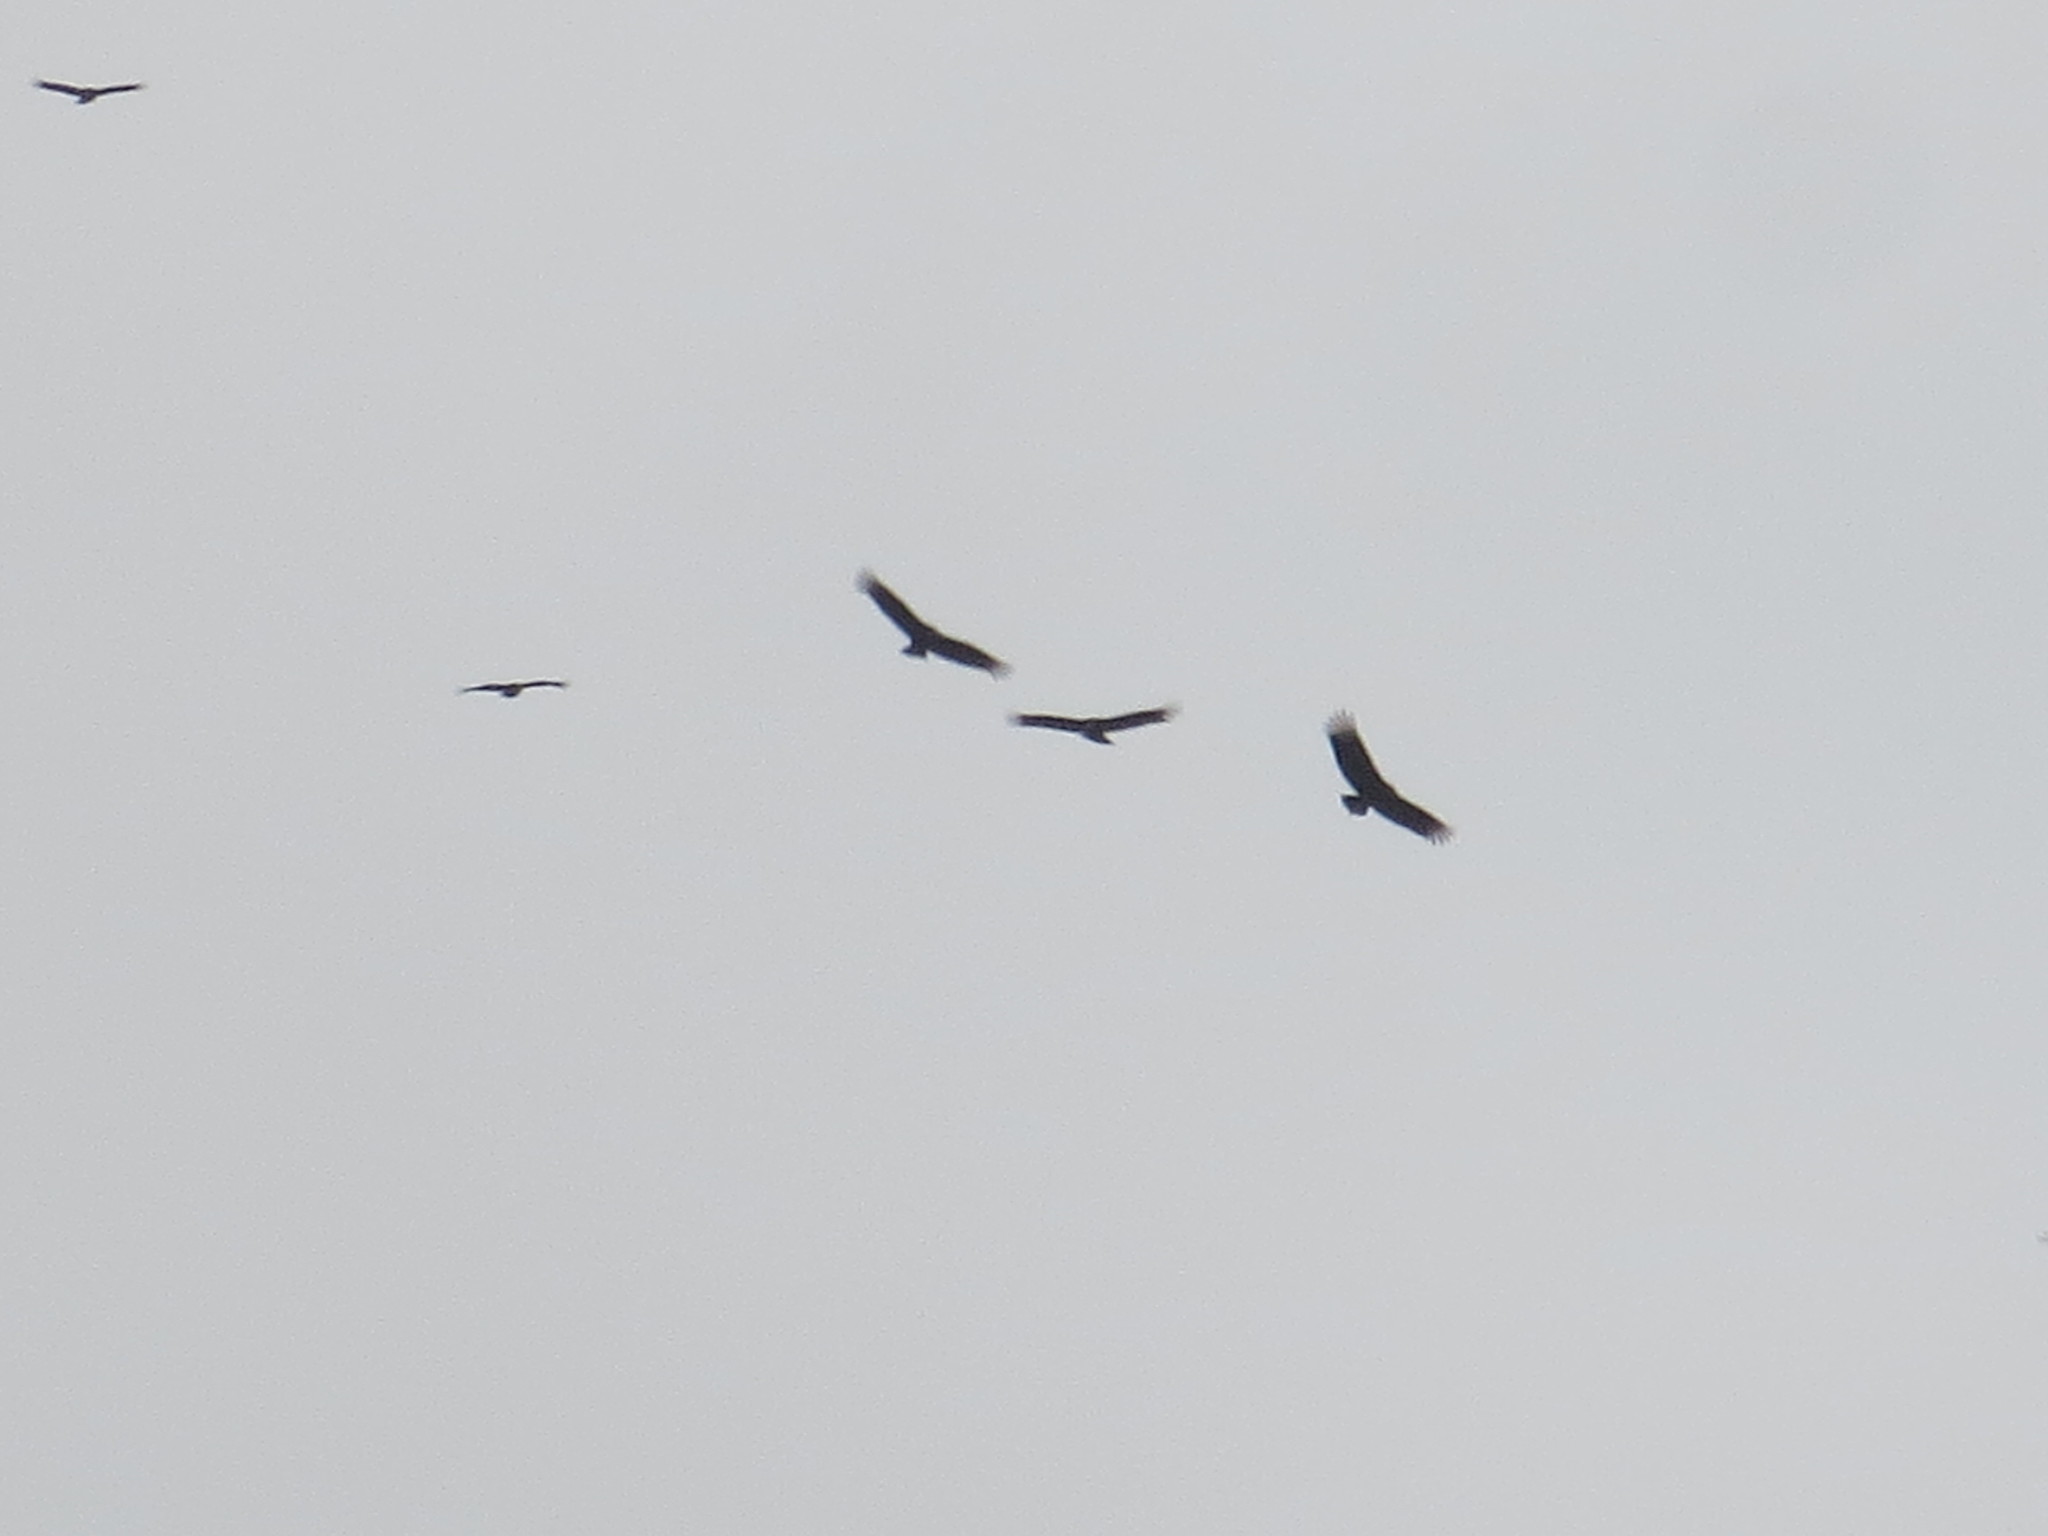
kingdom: Animalia
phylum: Chordata
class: Aves
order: Accipitriformes
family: Cathartidae
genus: Coragyps
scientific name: Coragyps atratus
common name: Black vulture
